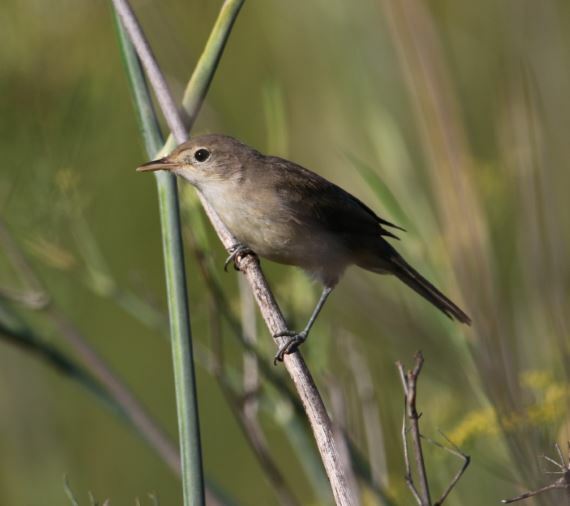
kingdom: Animalia
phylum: Chordata
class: Aves
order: Passeriformes
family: Acrocephalidae
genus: Acrocephalus
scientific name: Acrocephalus scirpaceus
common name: Eurasian reed warbler
